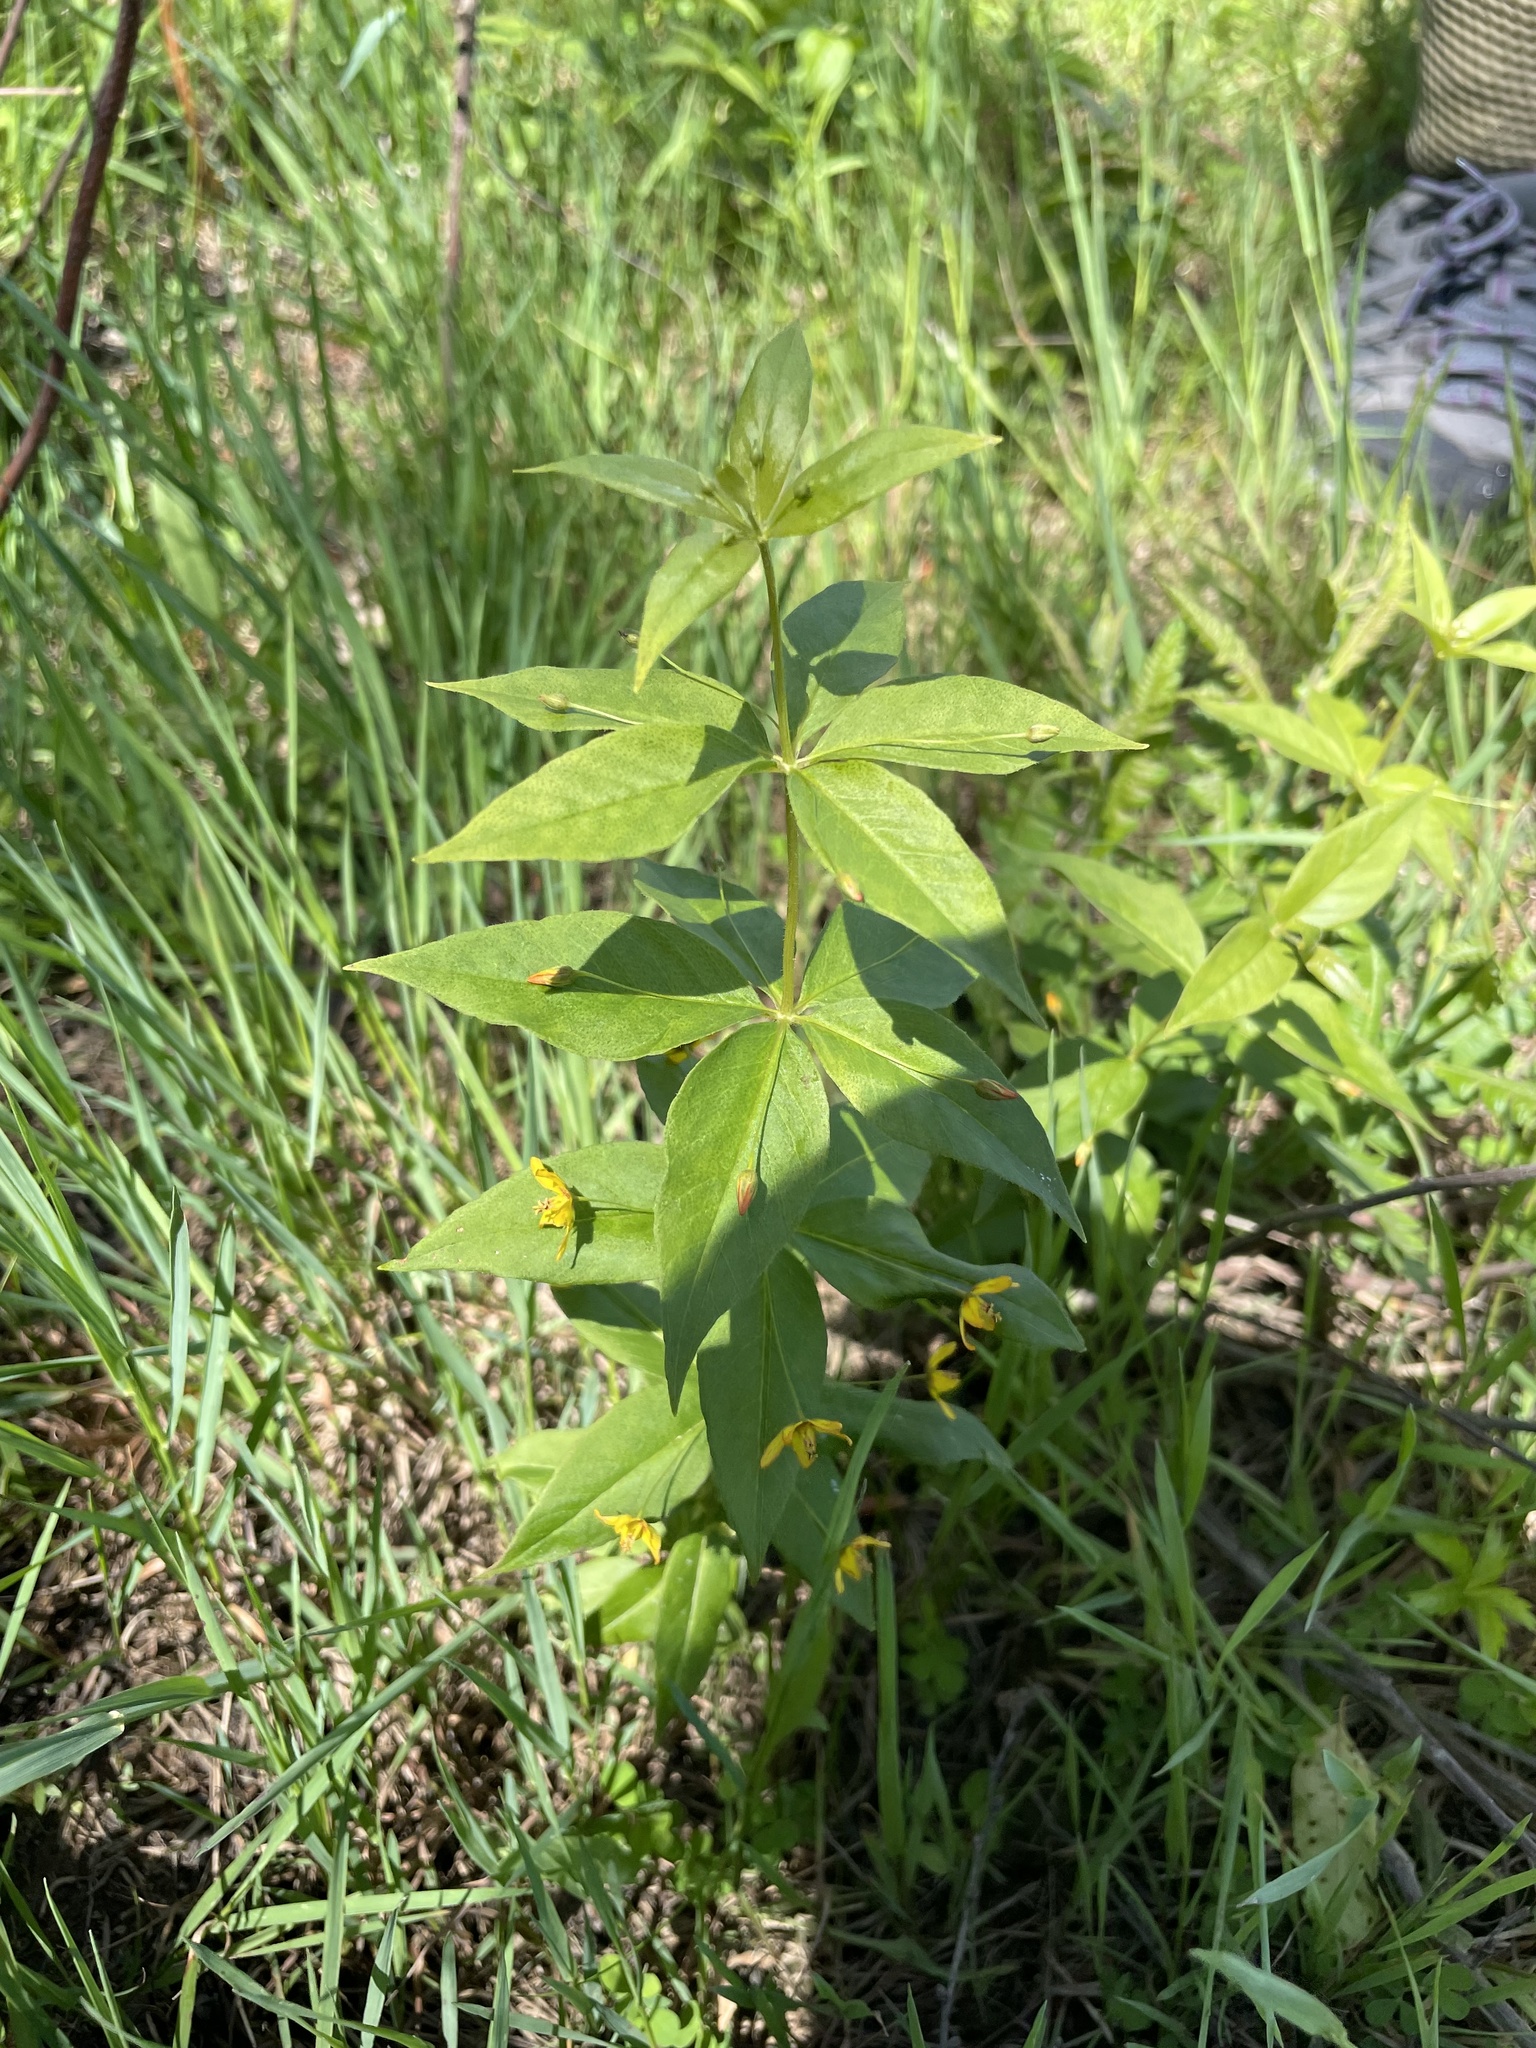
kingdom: Plantae
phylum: Tracheophyta
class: Magnoliopsida
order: Ericales
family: Primulaceae
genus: Lysimachia
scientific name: Lysimachia quadrifolia
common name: Whorled loosestrife
